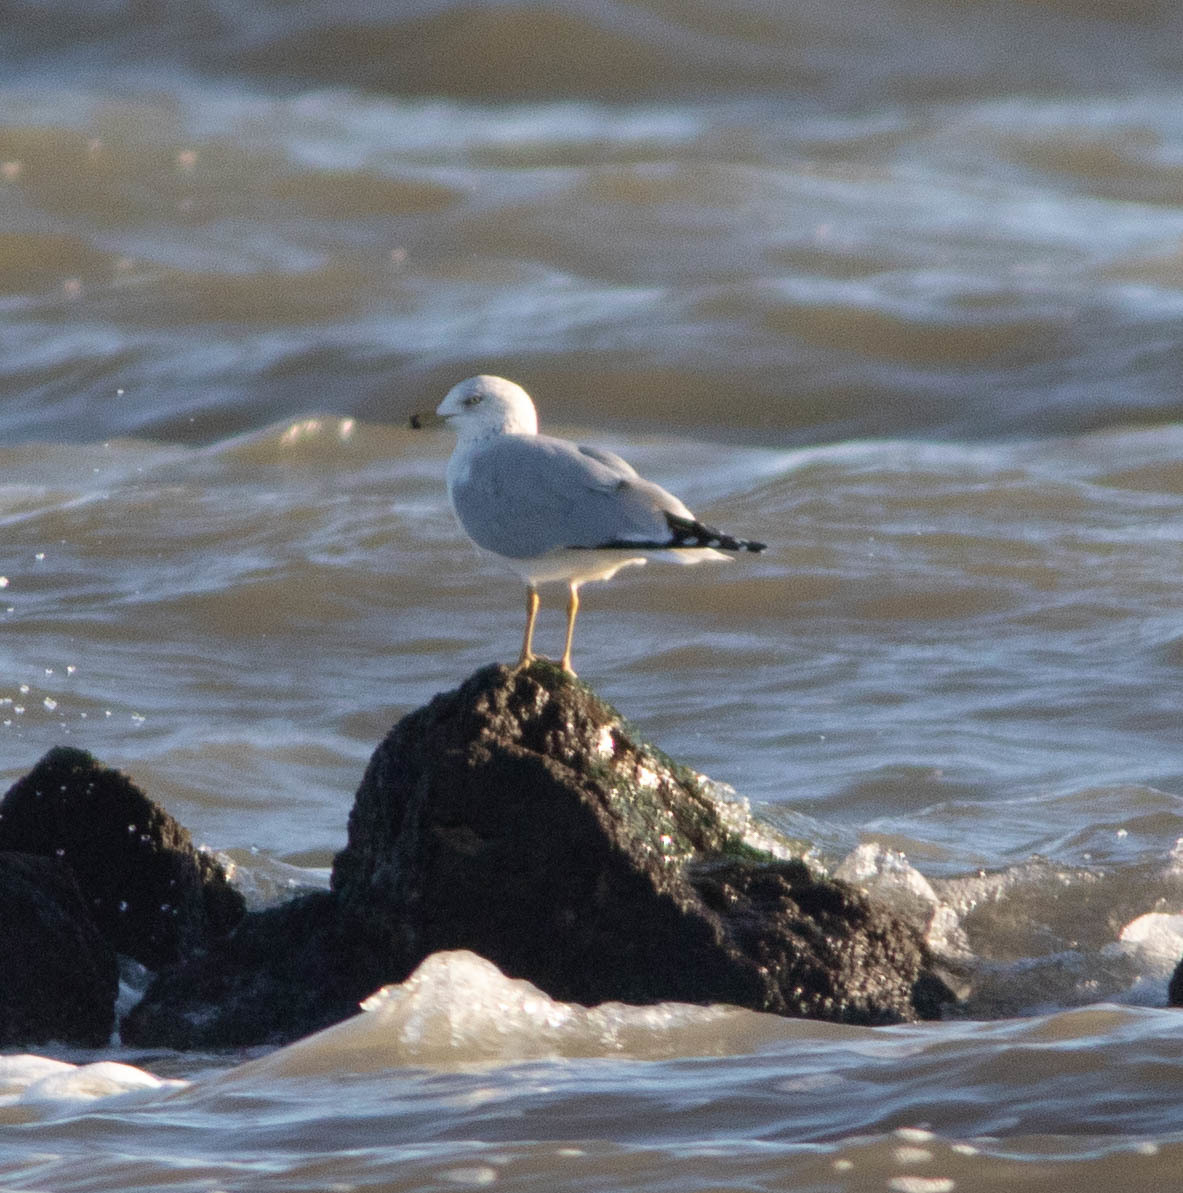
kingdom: Animalia
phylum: Chordata
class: Aves
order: Charadriiformes
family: Laridae
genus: Larus
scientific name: Larus delawarensis
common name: Ring-billed gull
